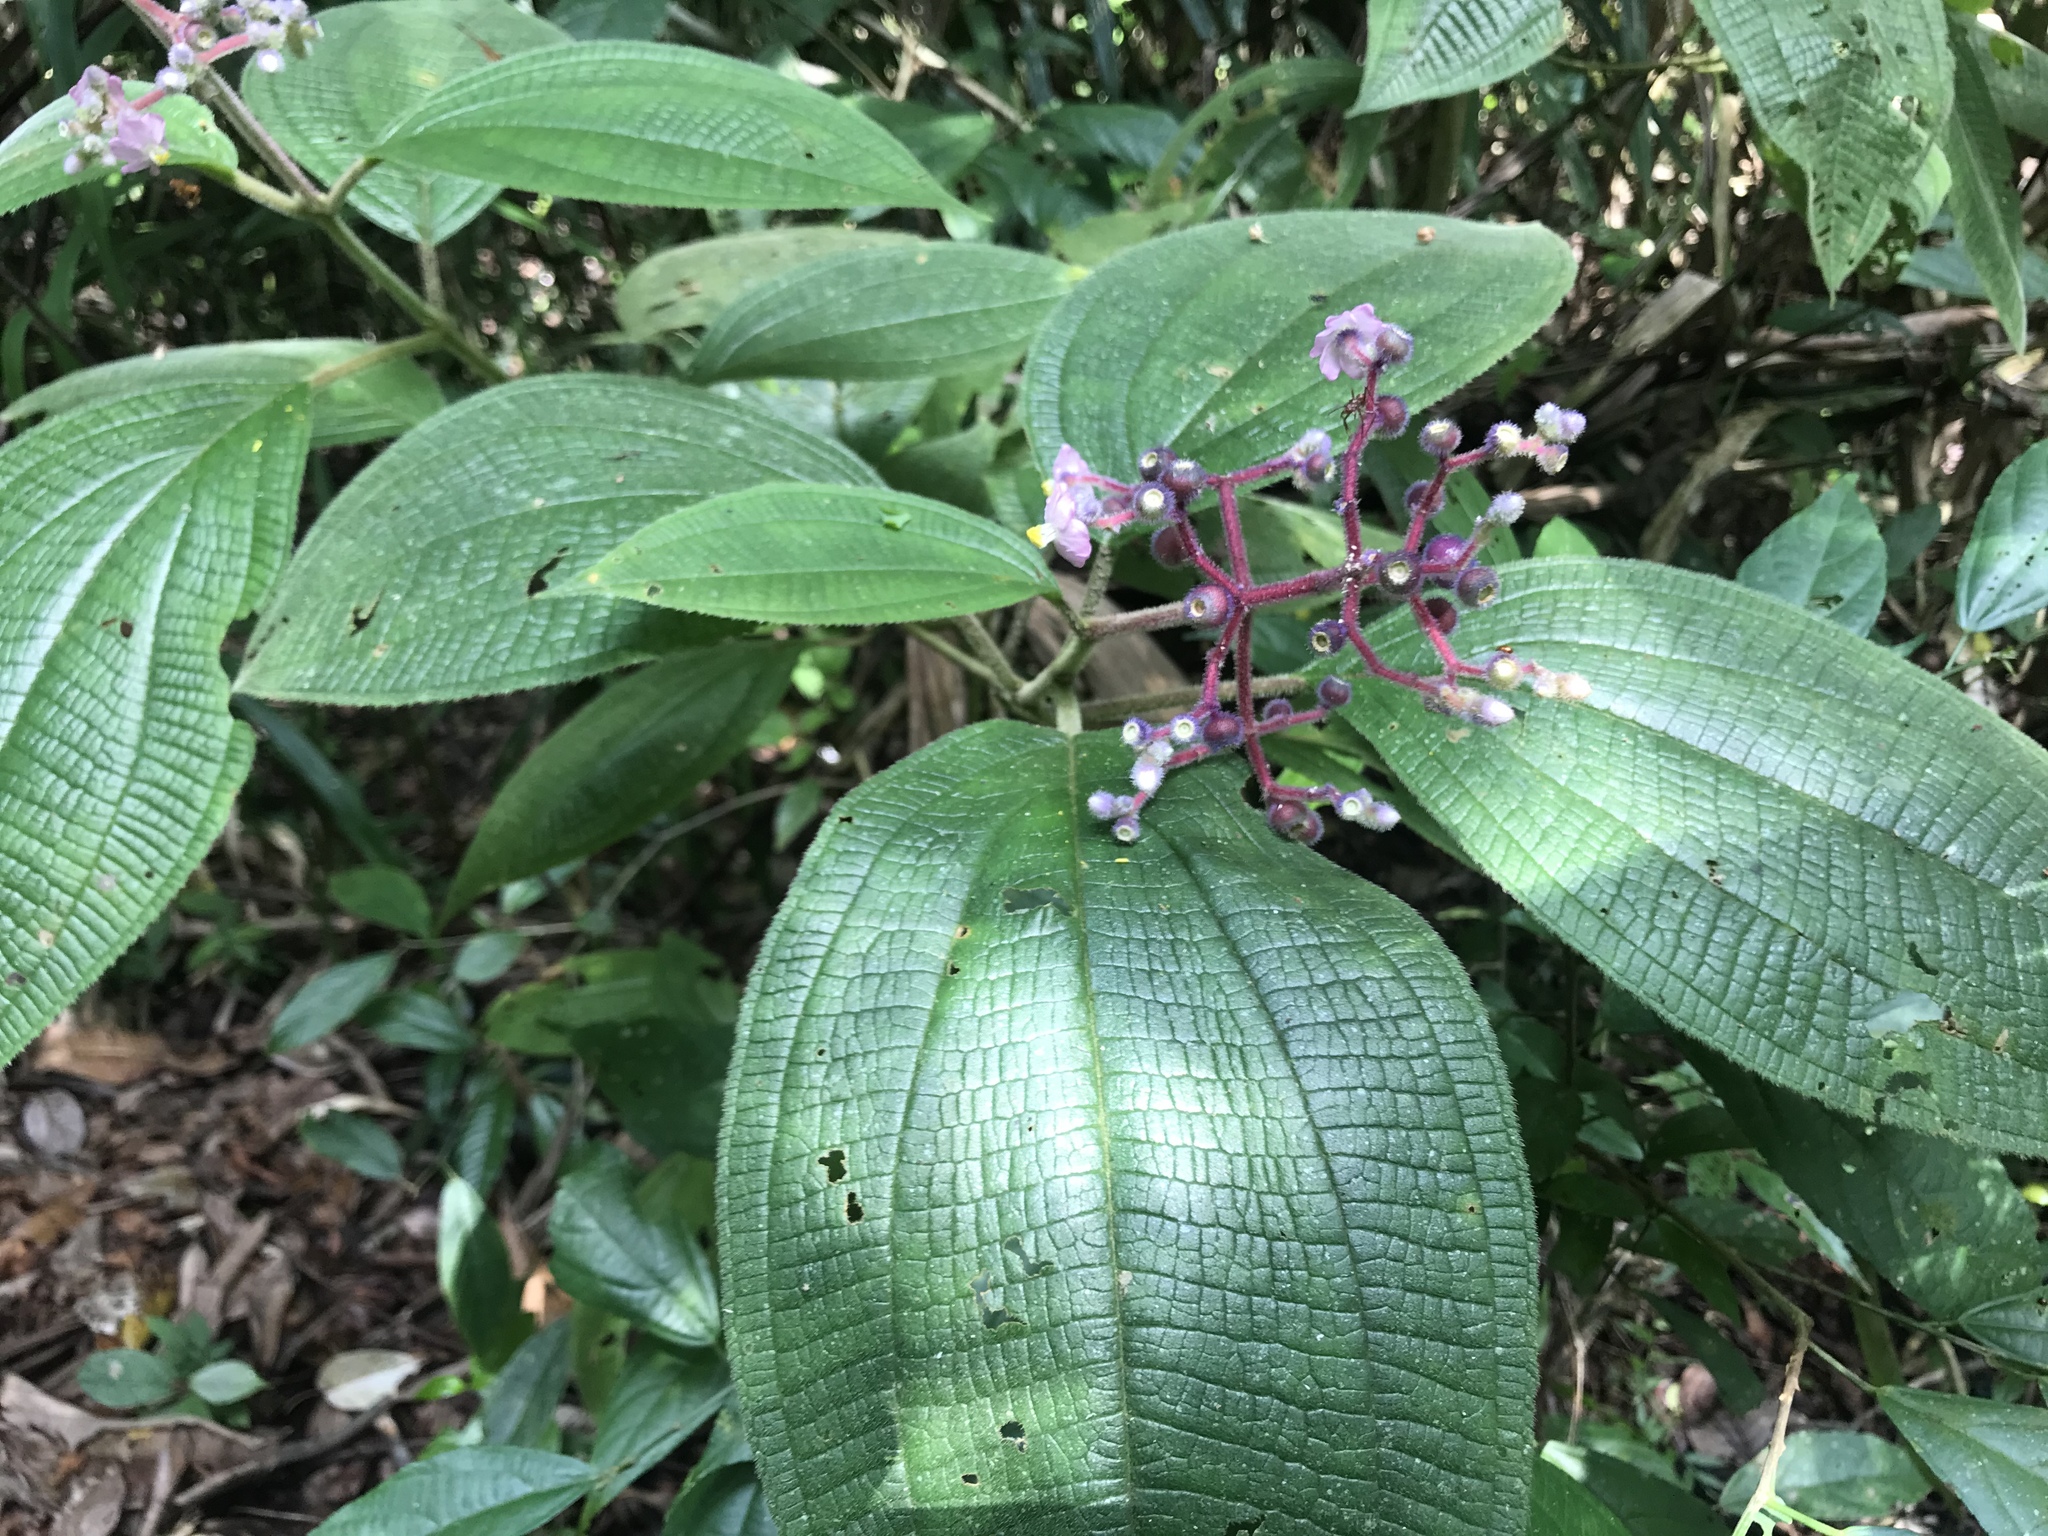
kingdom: Plantae
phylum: Tracheophyta
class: Magnoliopsida
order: Myrtales
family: Melastomataceae
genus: Miconia
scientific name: Miconia conospeciosa
